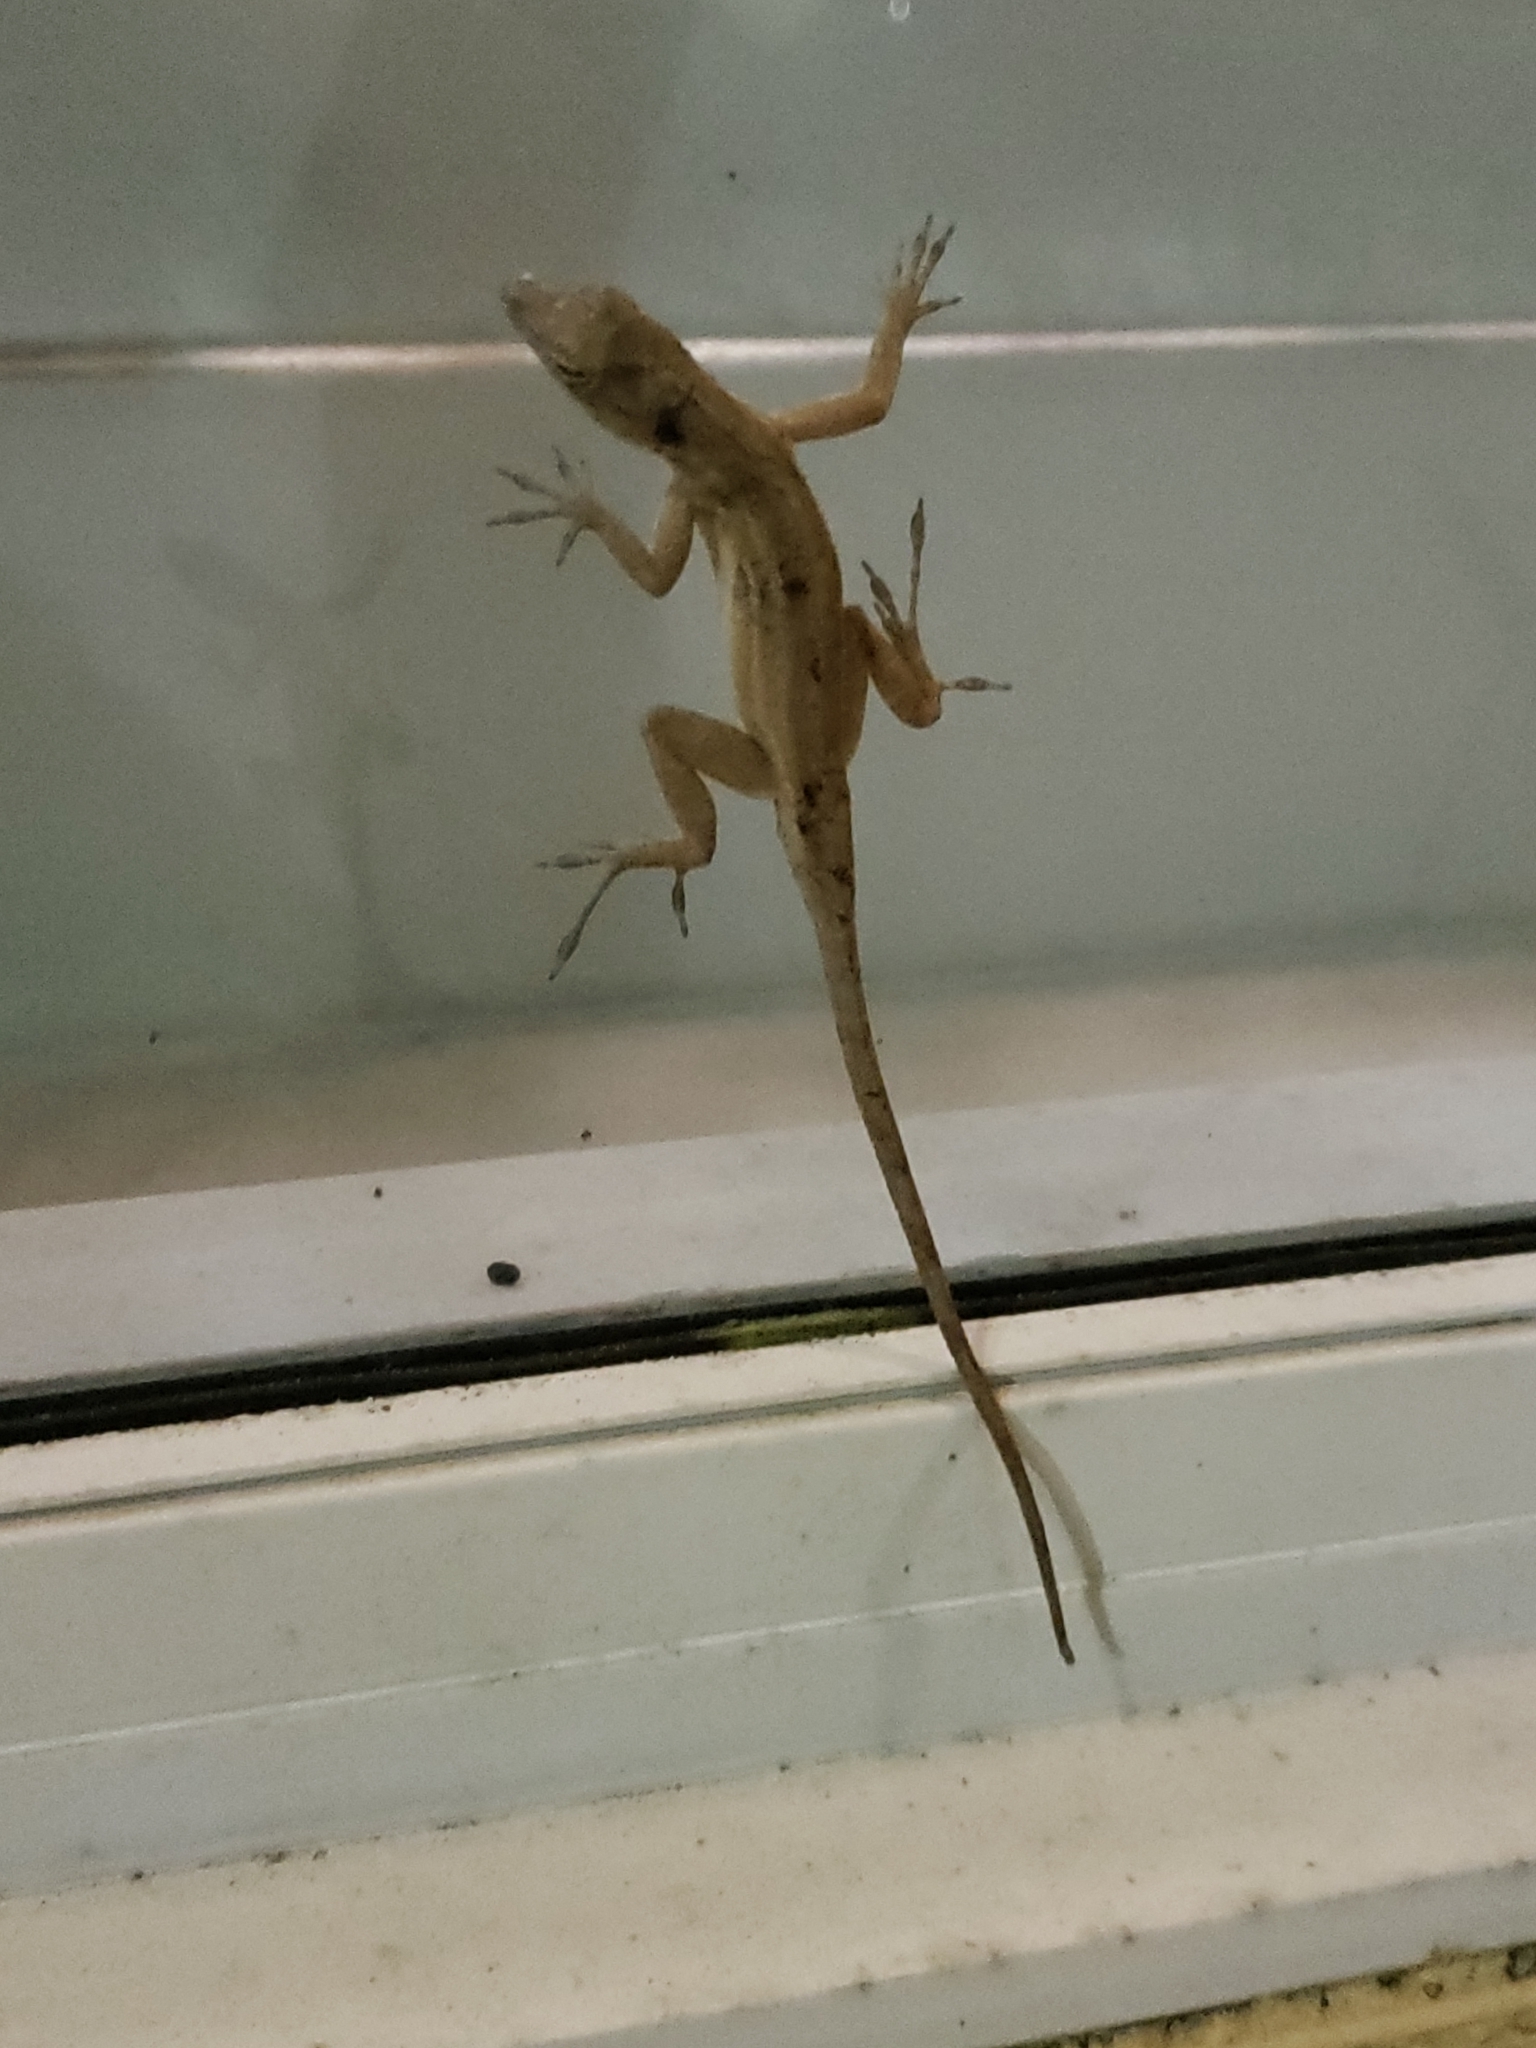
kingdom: Animalia
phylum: Chordata
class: Squamata
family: Dactyloidae
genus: Anolis
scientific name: Anolis sagrei
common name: Brown anole
